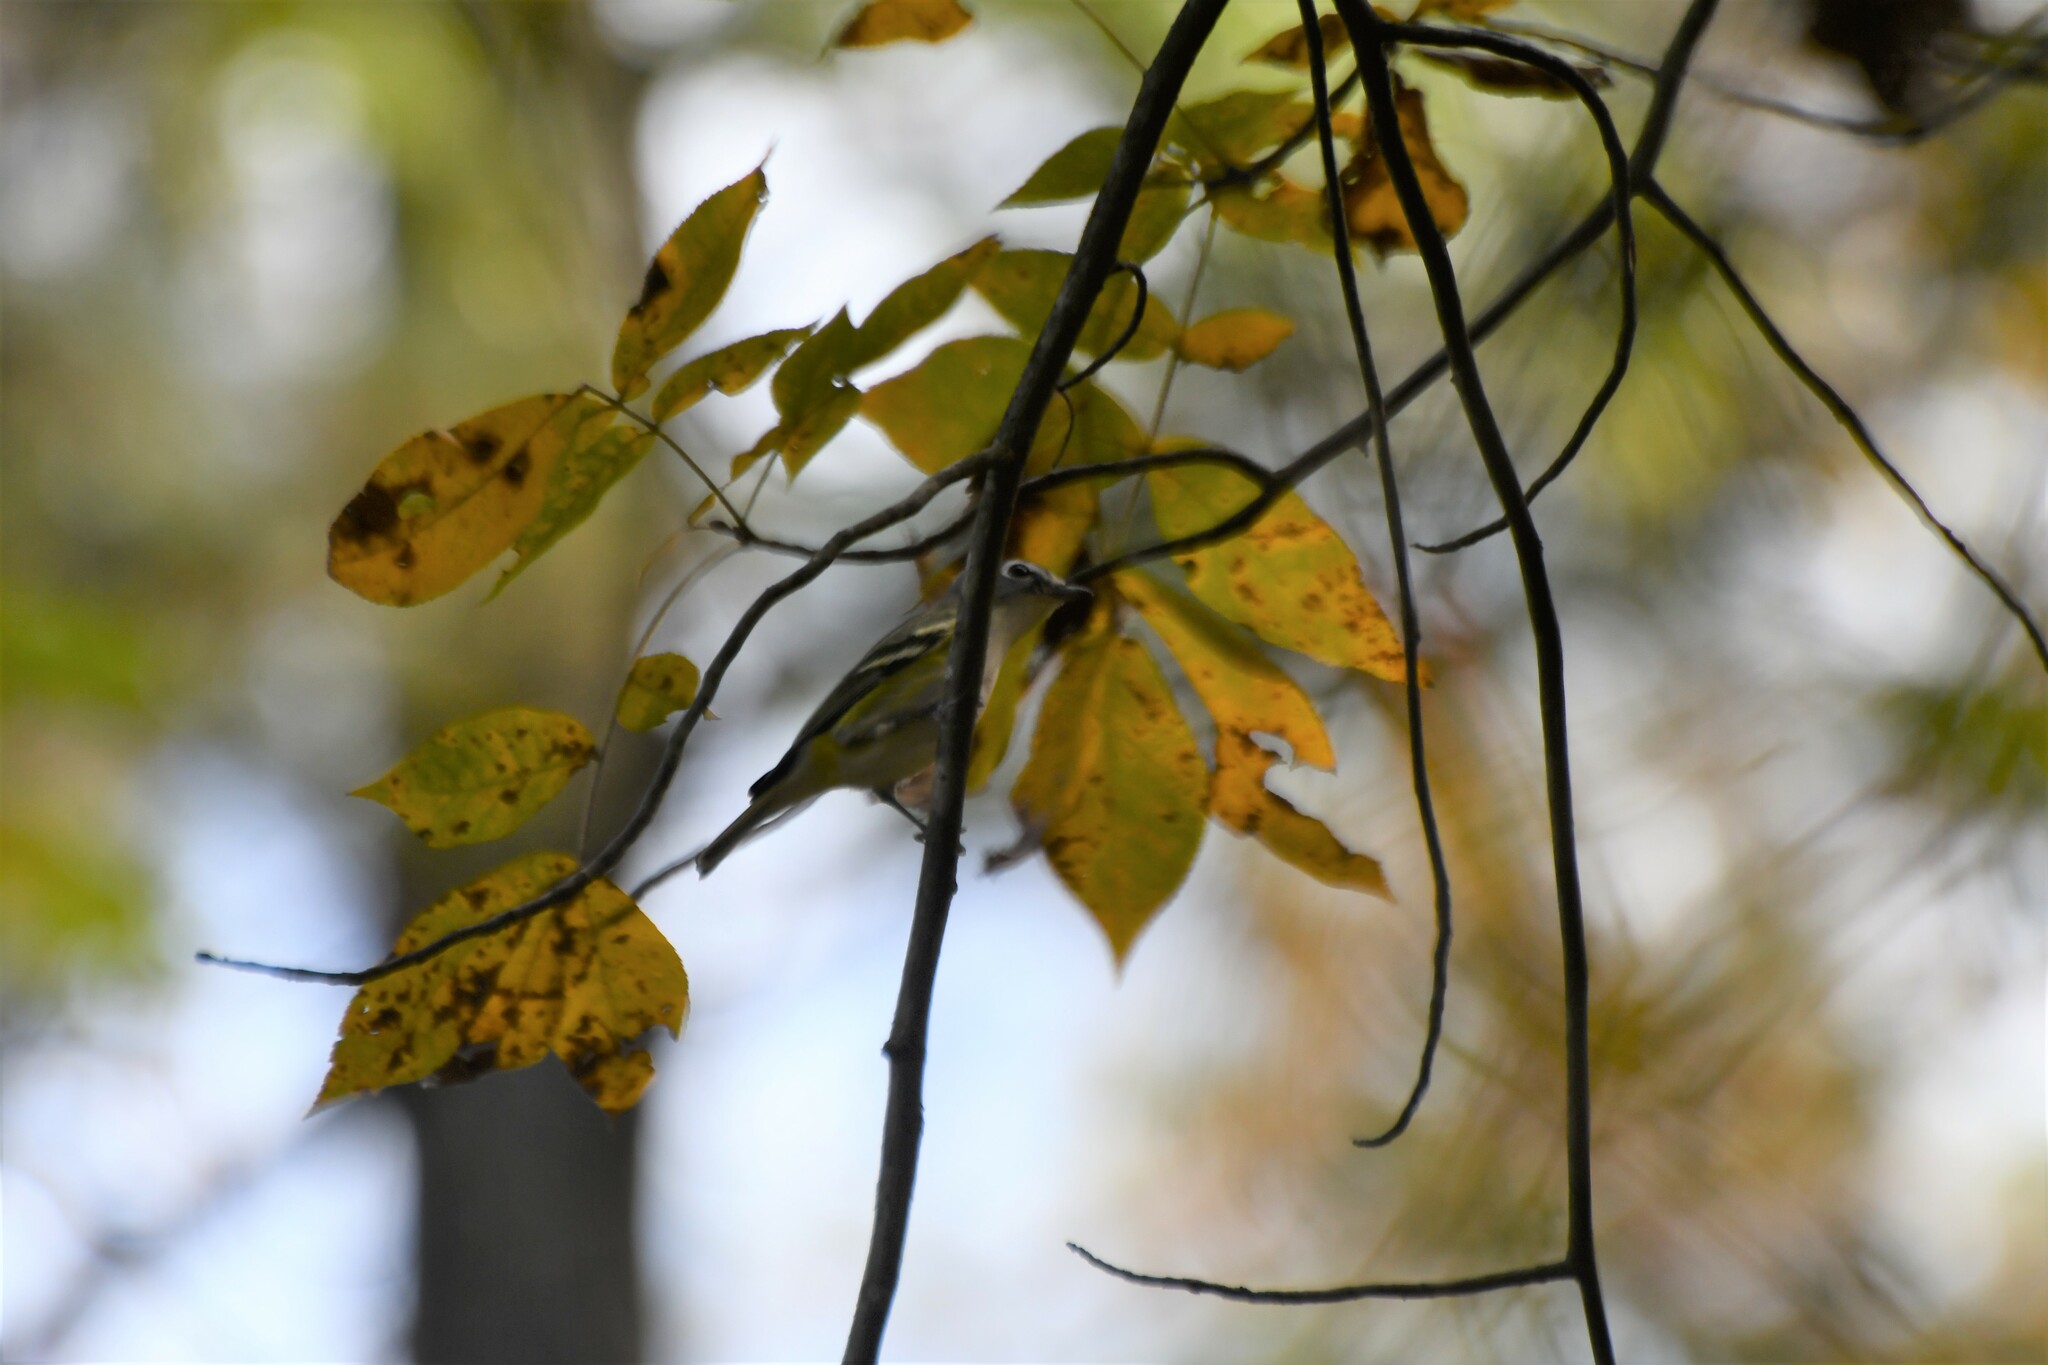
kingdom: Animalia
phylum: Chordata
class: Aves
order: Passeriformes
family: Vireonidae
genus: Vireo
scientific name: Vireo solitarius
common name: Blue-headed vireo
